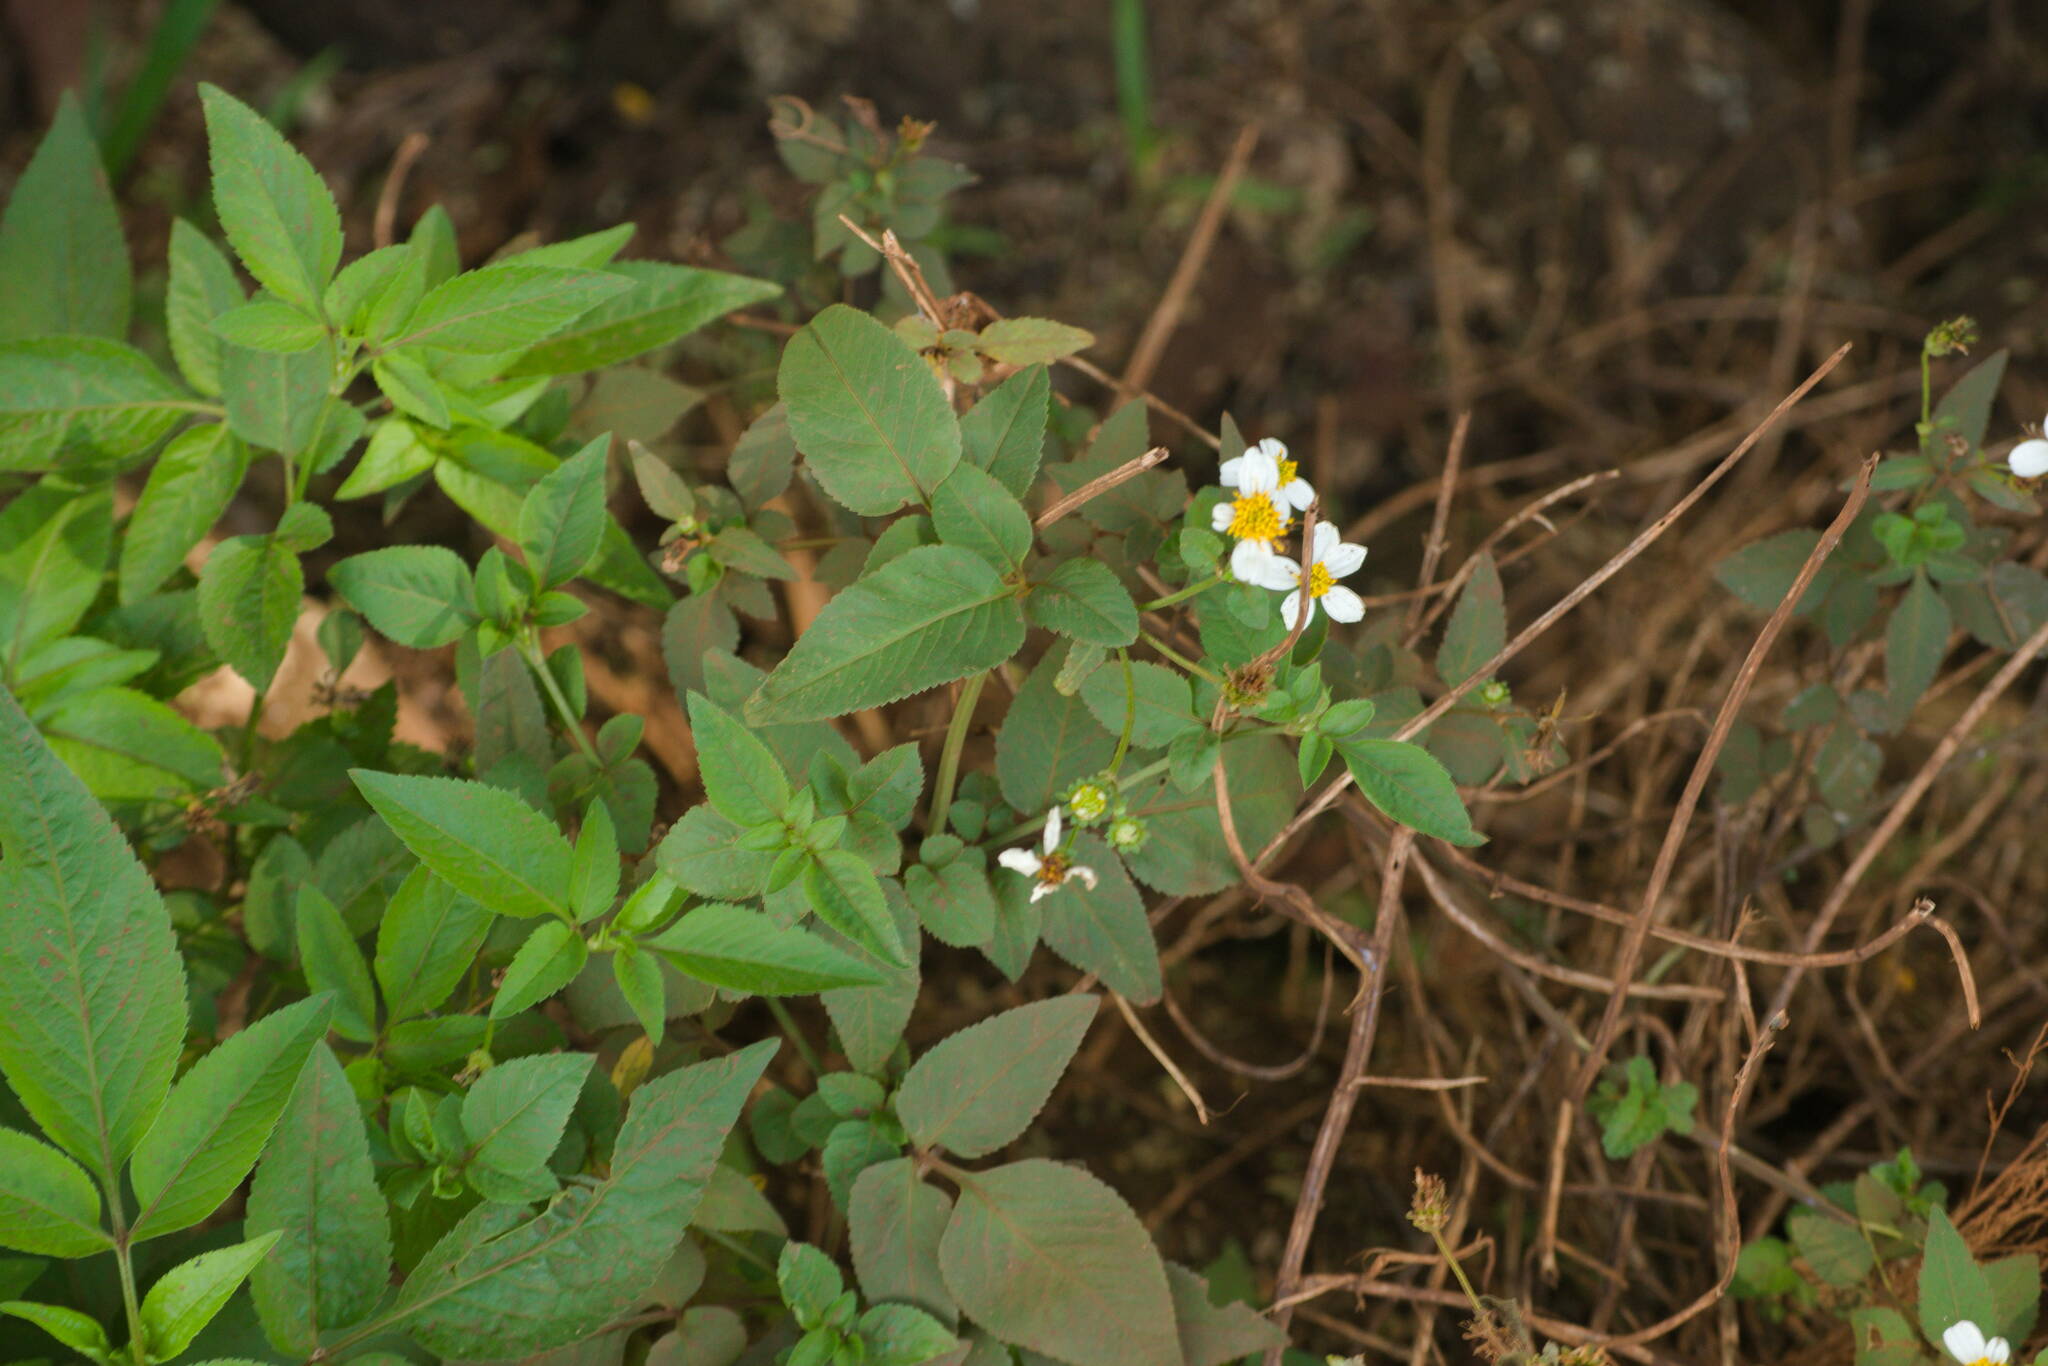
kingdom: Plantae
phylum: Tracheophyta
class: Magnoliopsida
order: Asterales
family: Asteraceae
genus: Bidens
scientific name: Bidens alba
